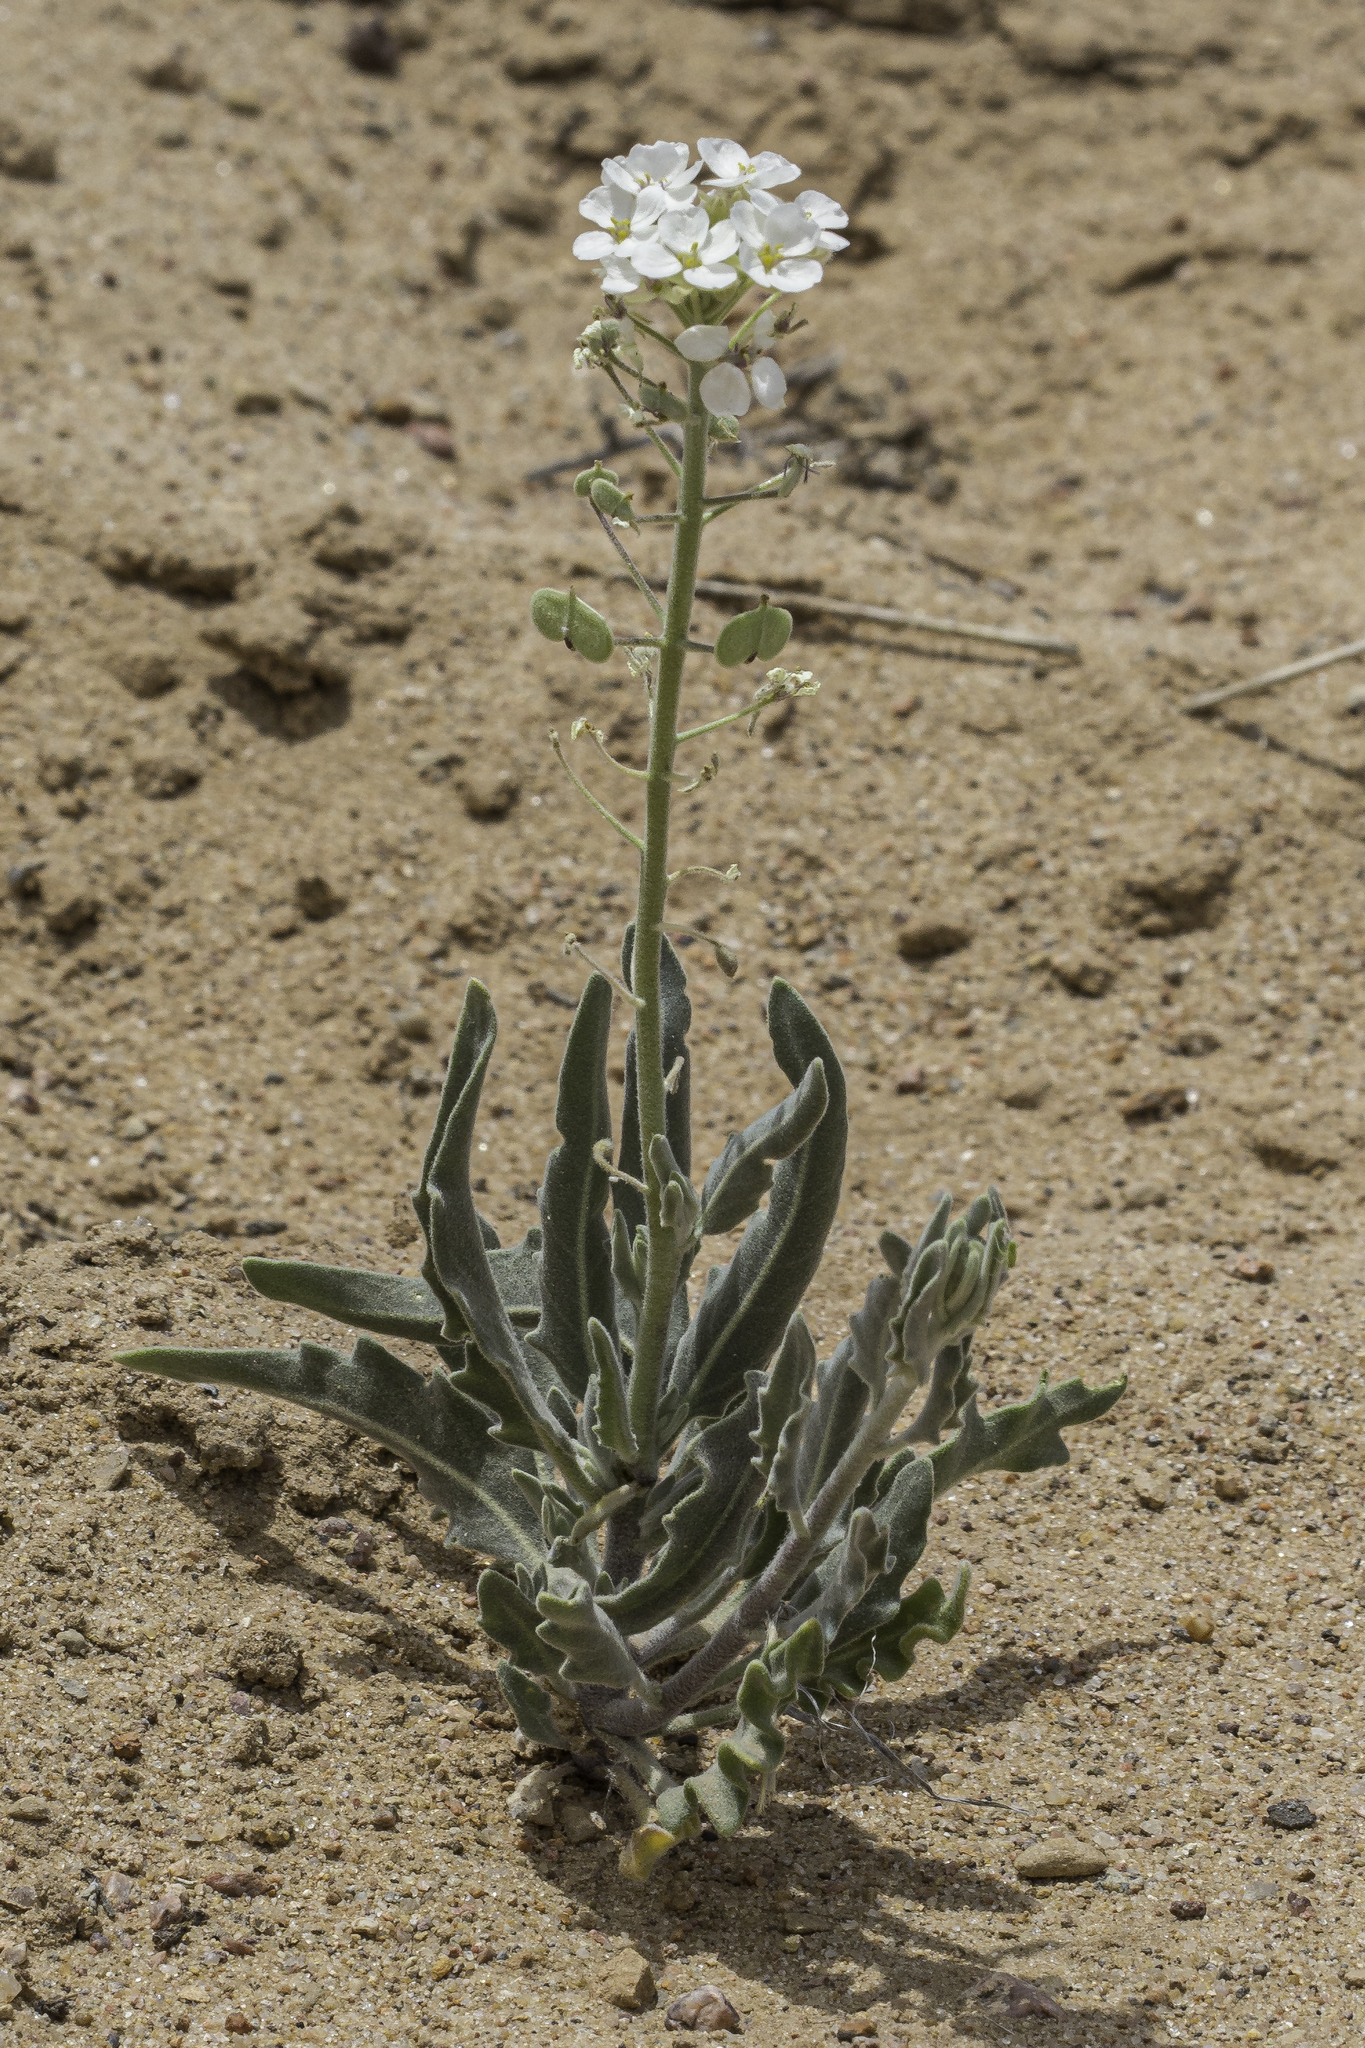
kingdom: Plantae
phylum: Tracheophyta
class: Magnoliopsida
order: Brassicales
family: Brassicaceae
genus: Dimorphocarpa
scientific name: Dimorphocarpa wislizenii
